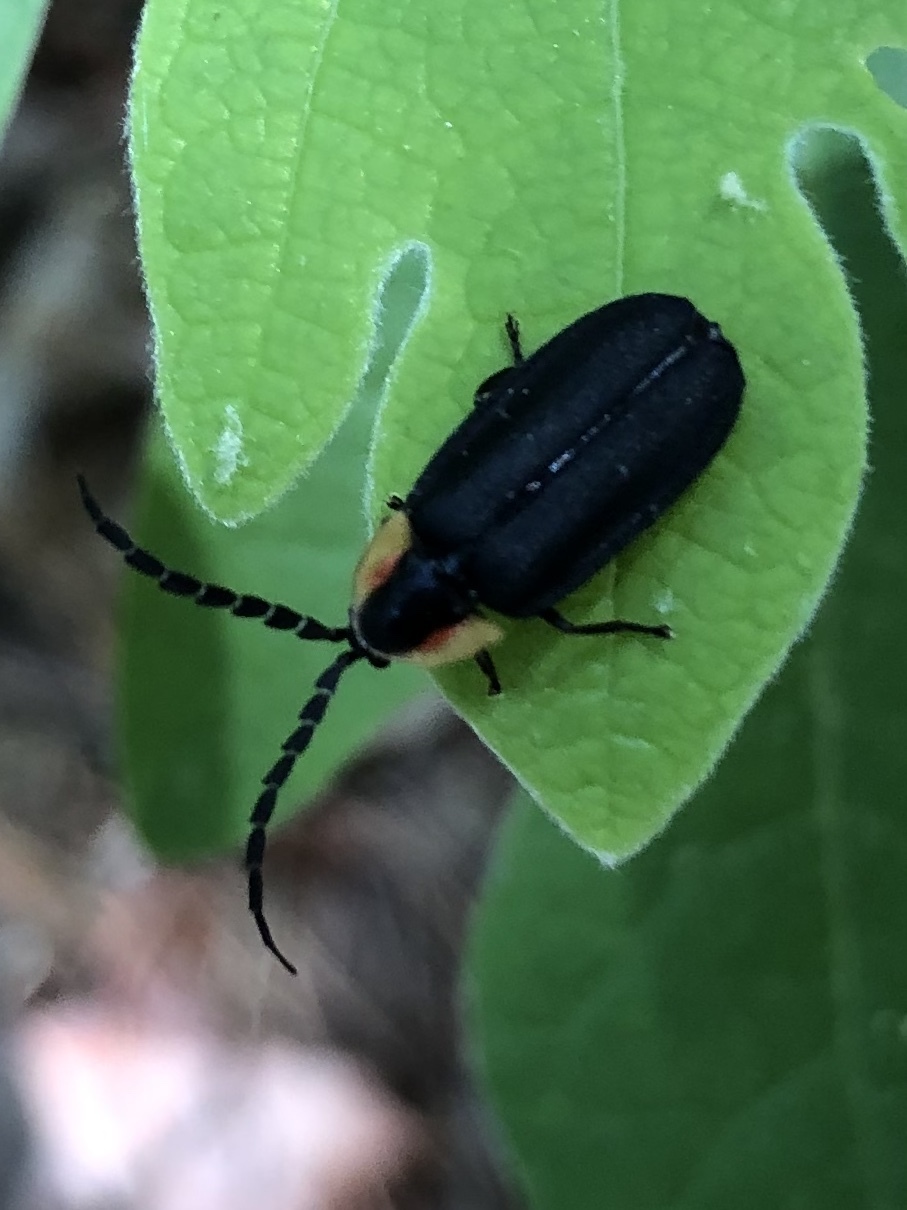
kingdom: Animalia
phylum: Arthropoda
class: Insecta
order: Coleoptera
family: Lampyridae
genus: Lucidota
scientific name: Lucidota atra
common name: Black firefly
